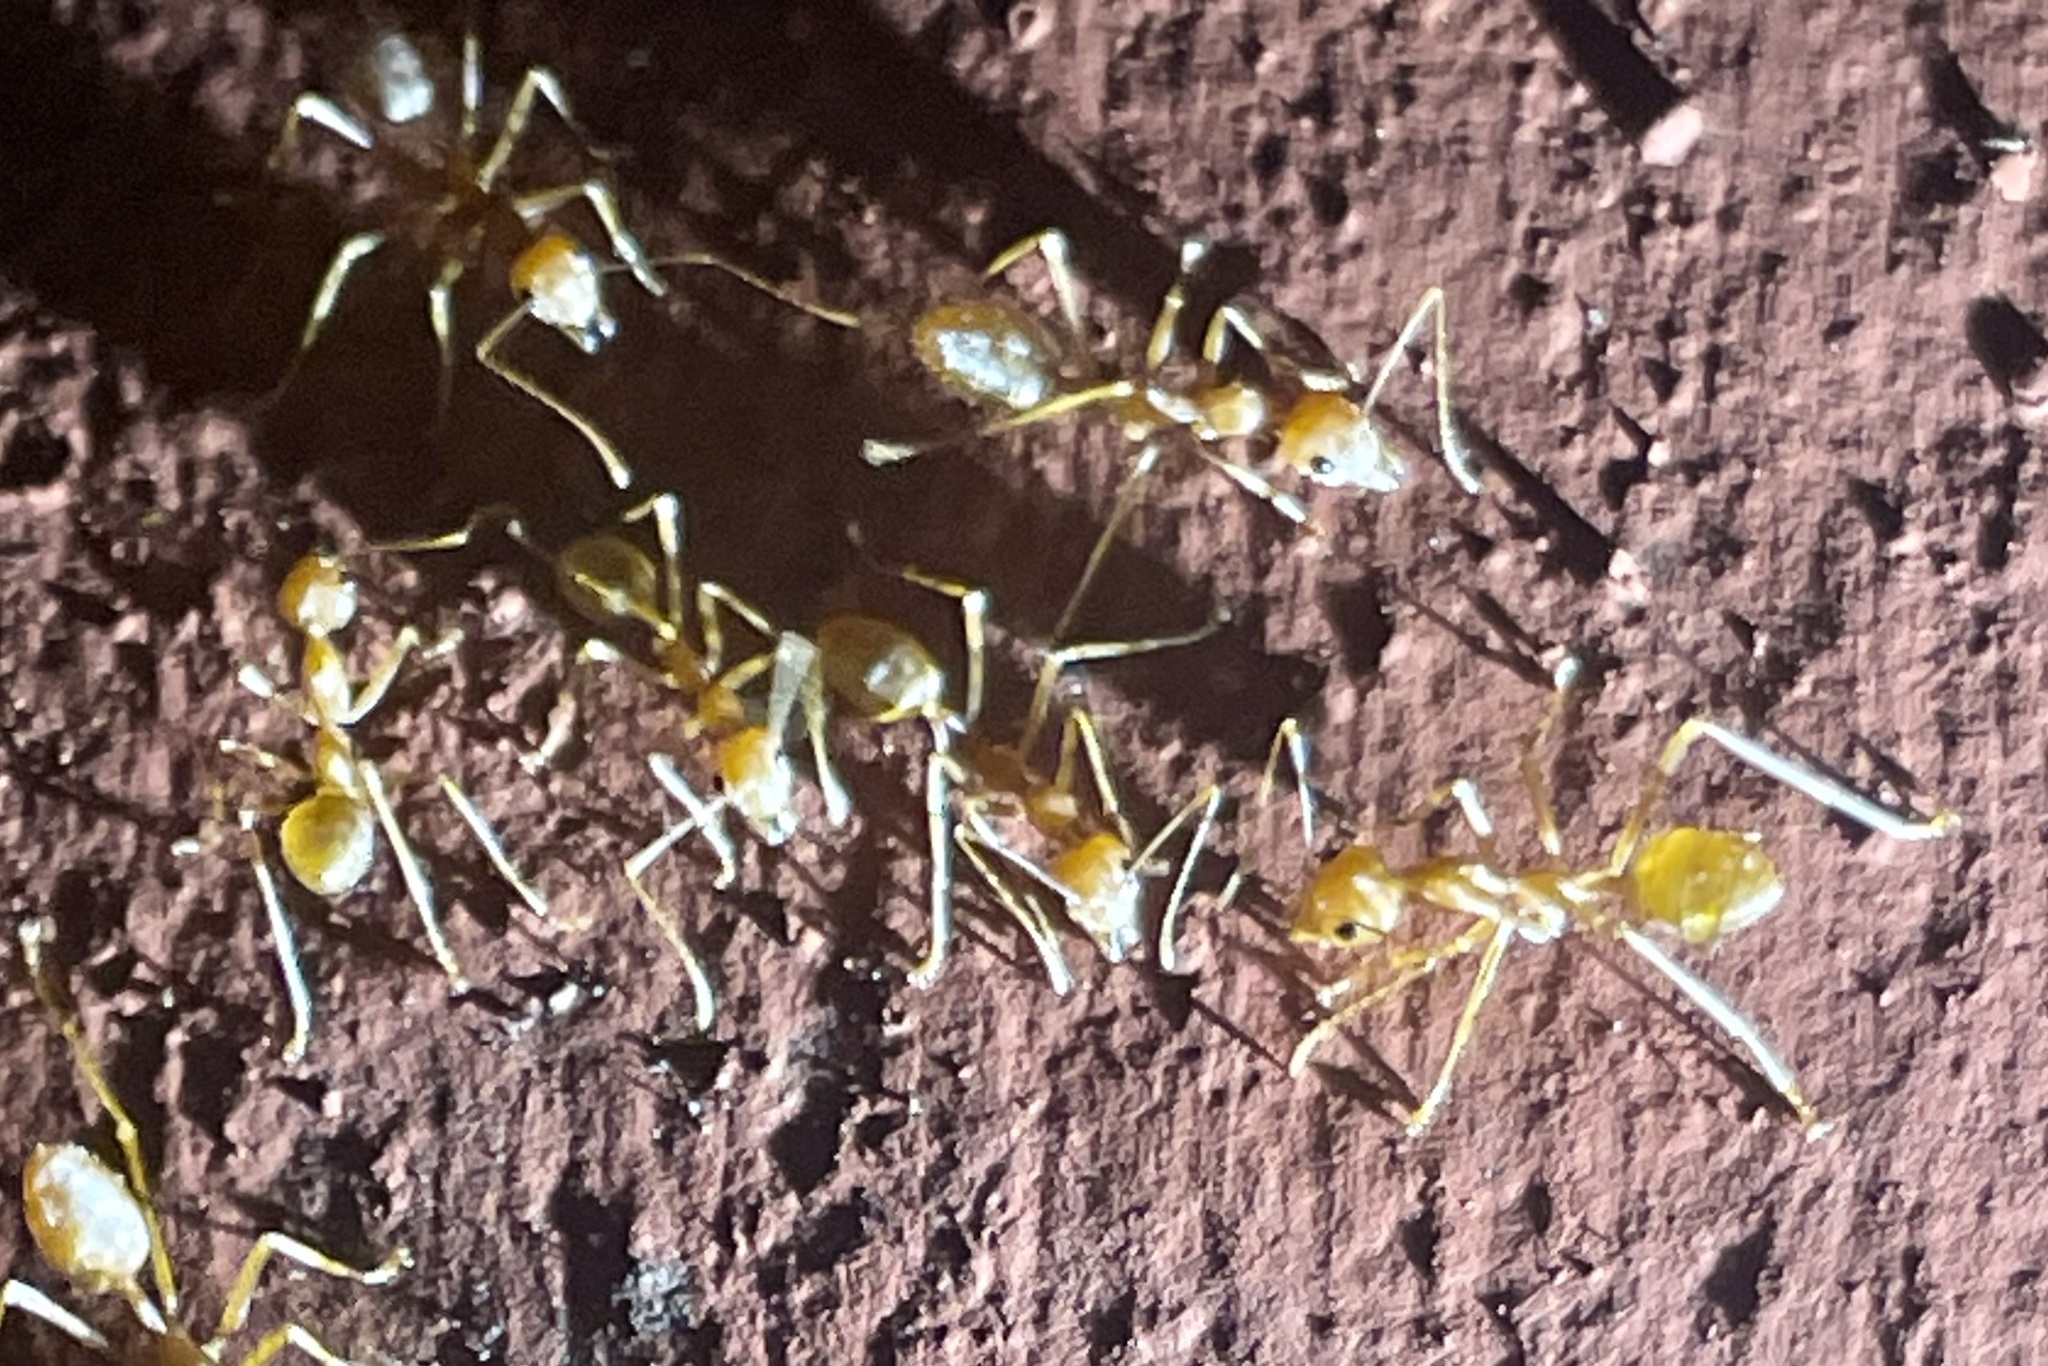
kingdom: Animalia
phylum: Arthropoda
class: Insecta
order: Hymenoptera
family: Formicidae
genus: Oecophylla
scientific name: Oecophylla smaragdina
